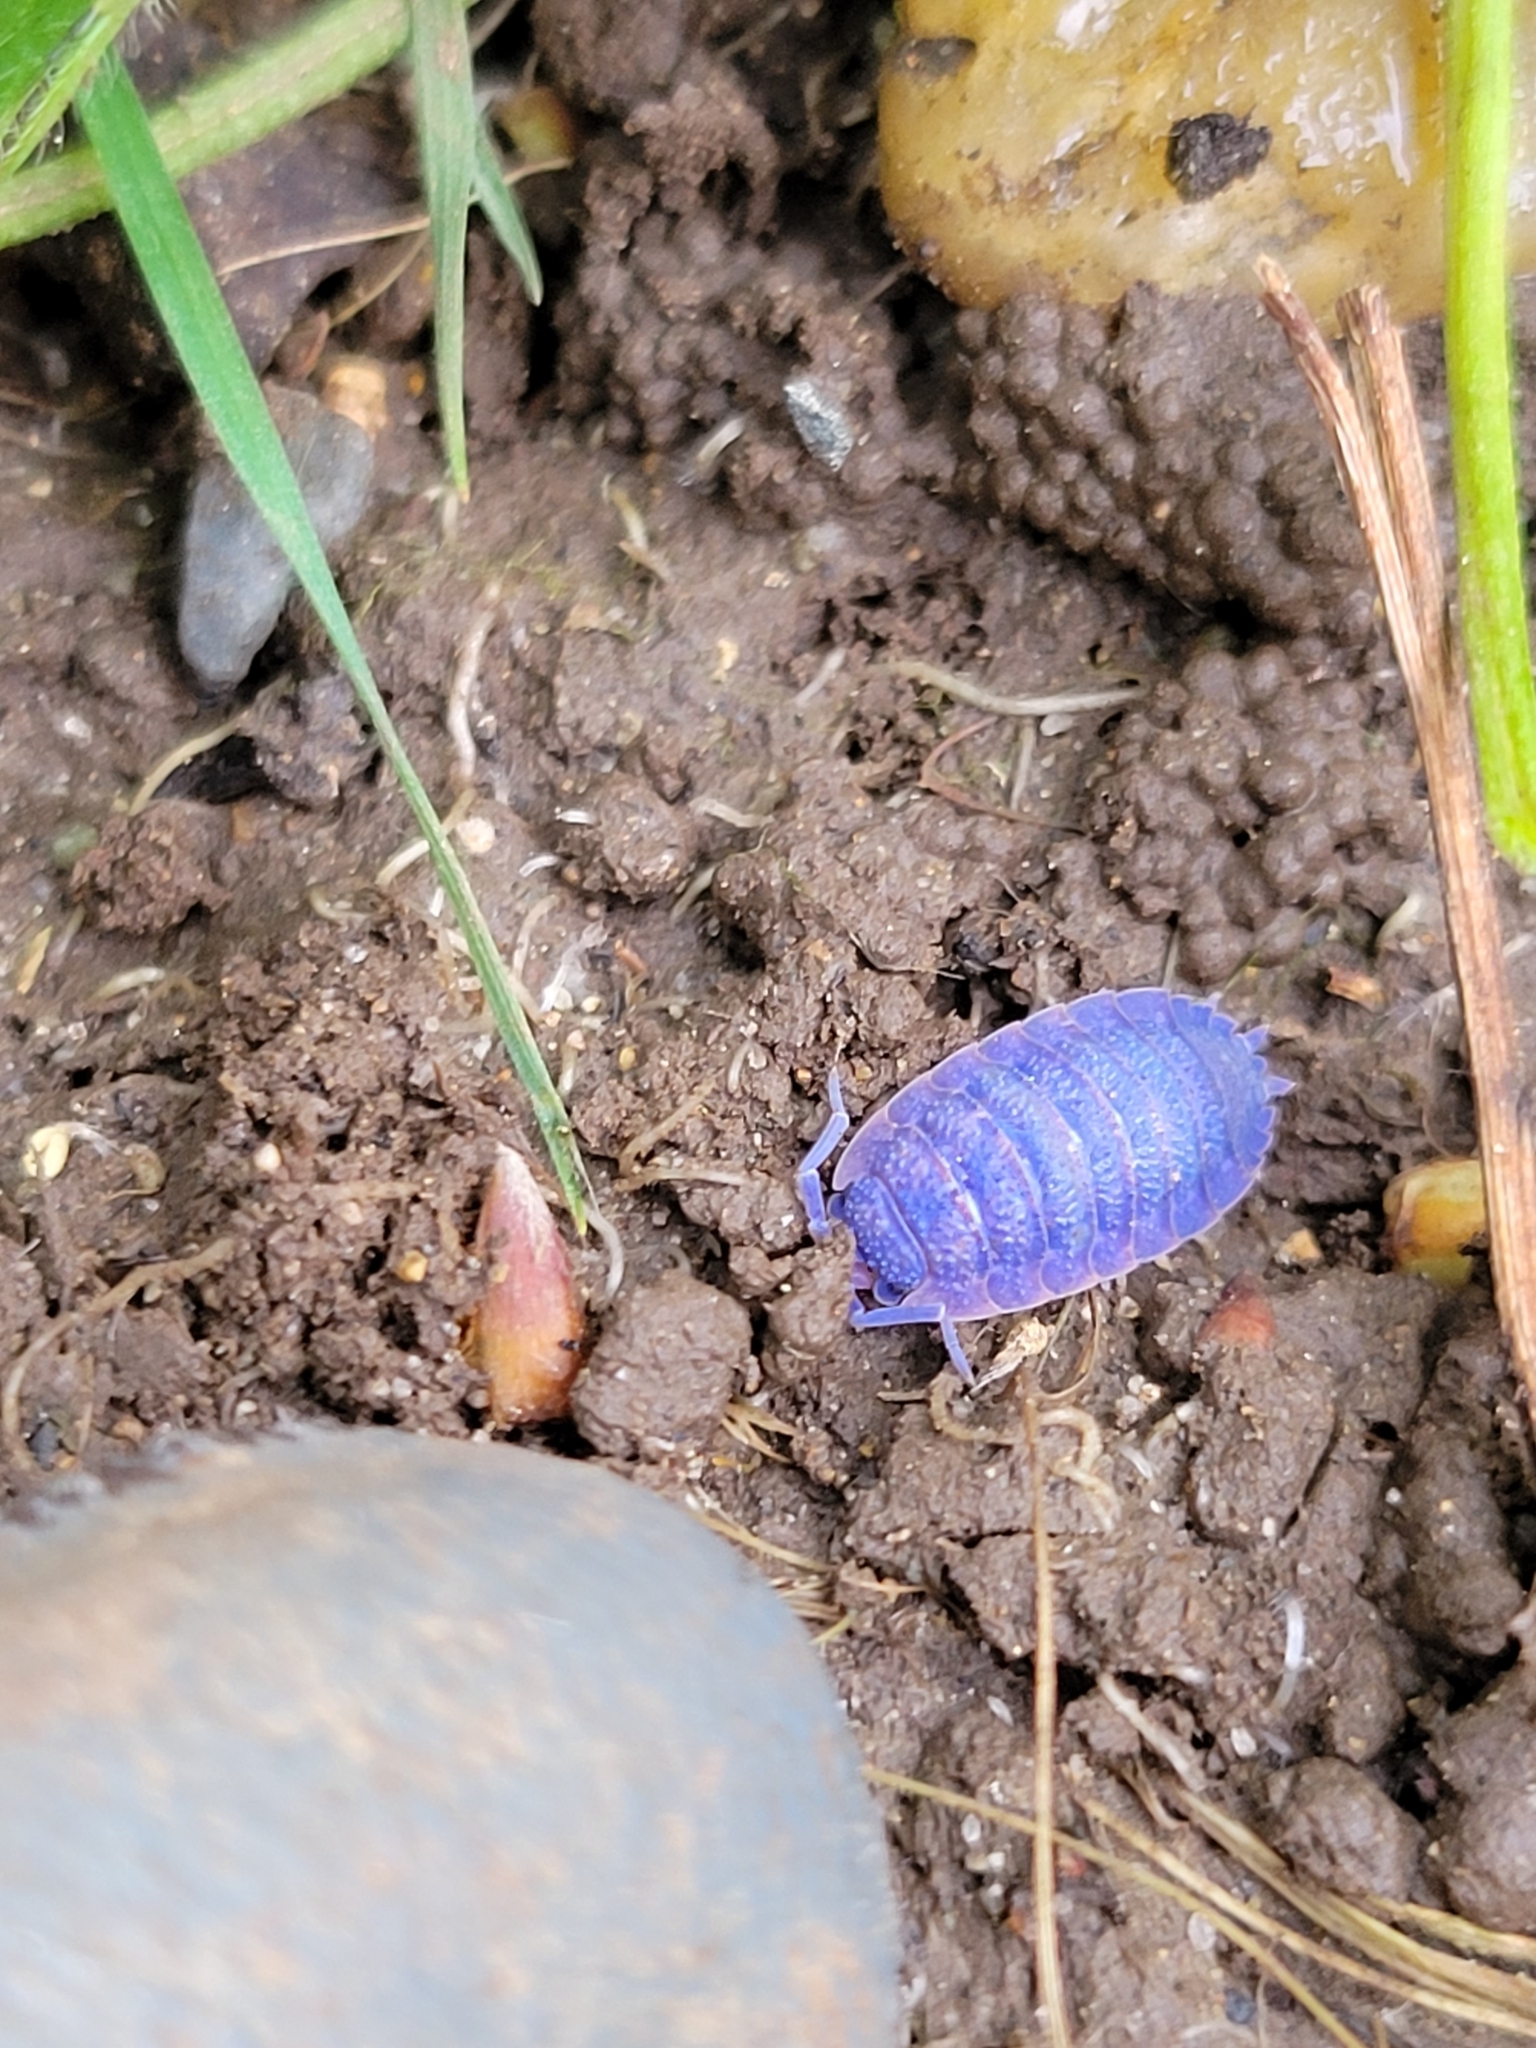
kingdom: Viruses
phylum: Nucleocytoviricota
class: Megaviricetes
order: Pimascovirales
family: Iridoviridae
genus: Iridovirus
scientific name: Iridovirus Invertebrate iridescent virus 31
